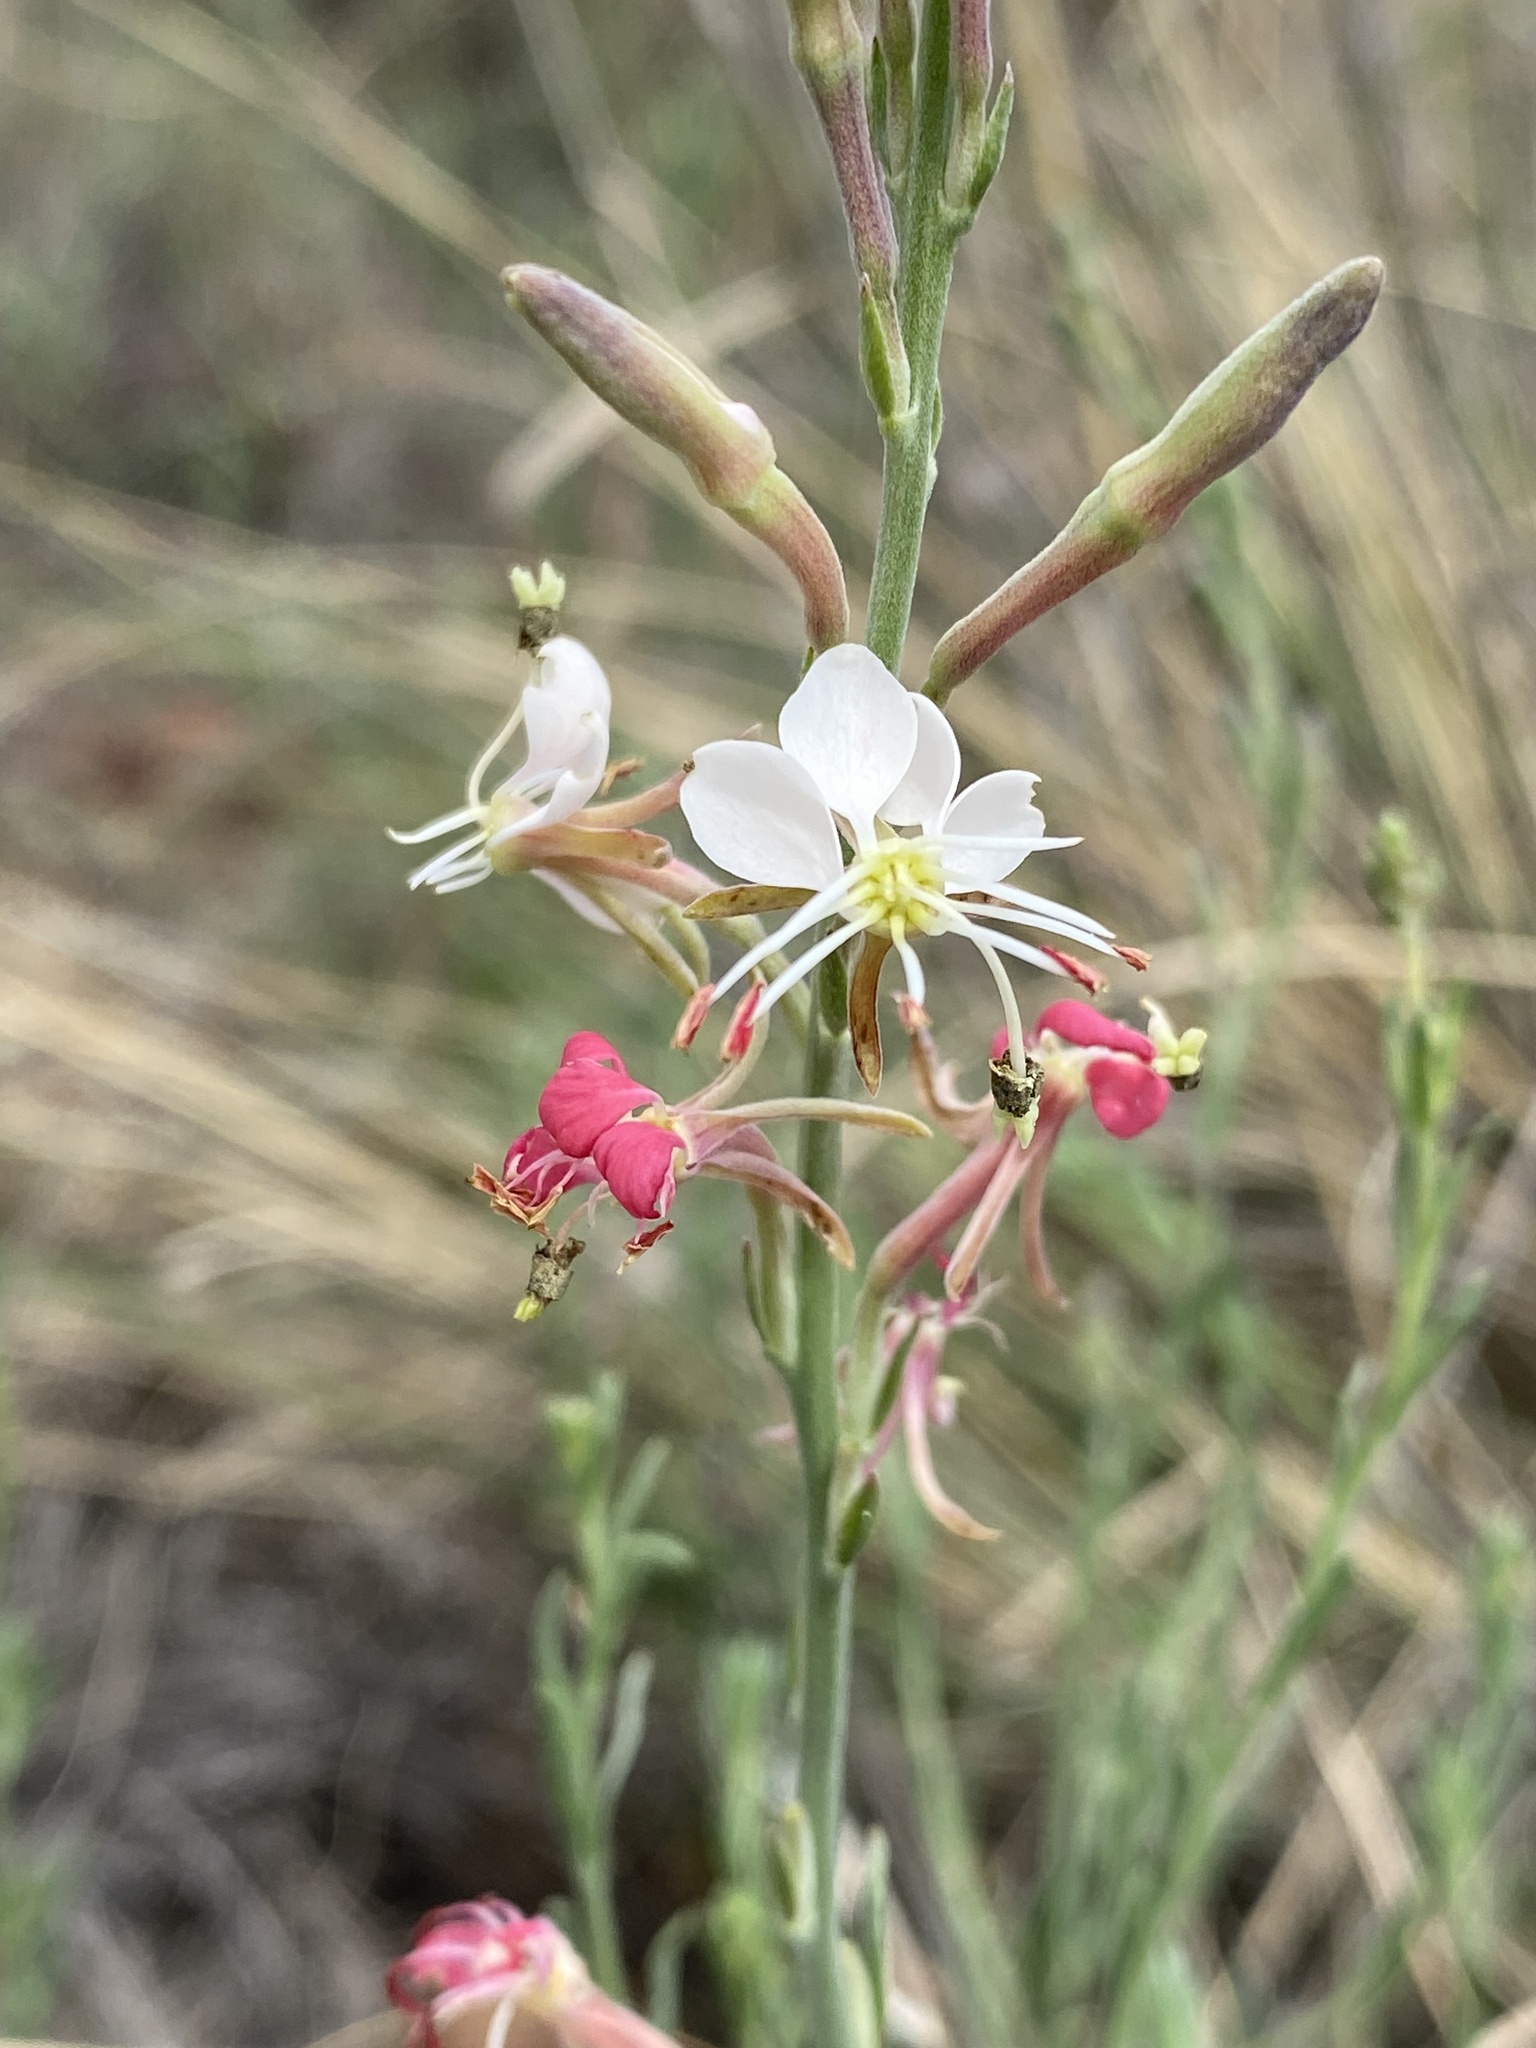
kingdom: Plantae
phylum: Tracheophyta
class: Magnoliopsida
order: Myrtales
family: Onagraceae
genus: Oenothera
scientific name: Oenothera suffrutescens
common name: Scarlet beeblossom
